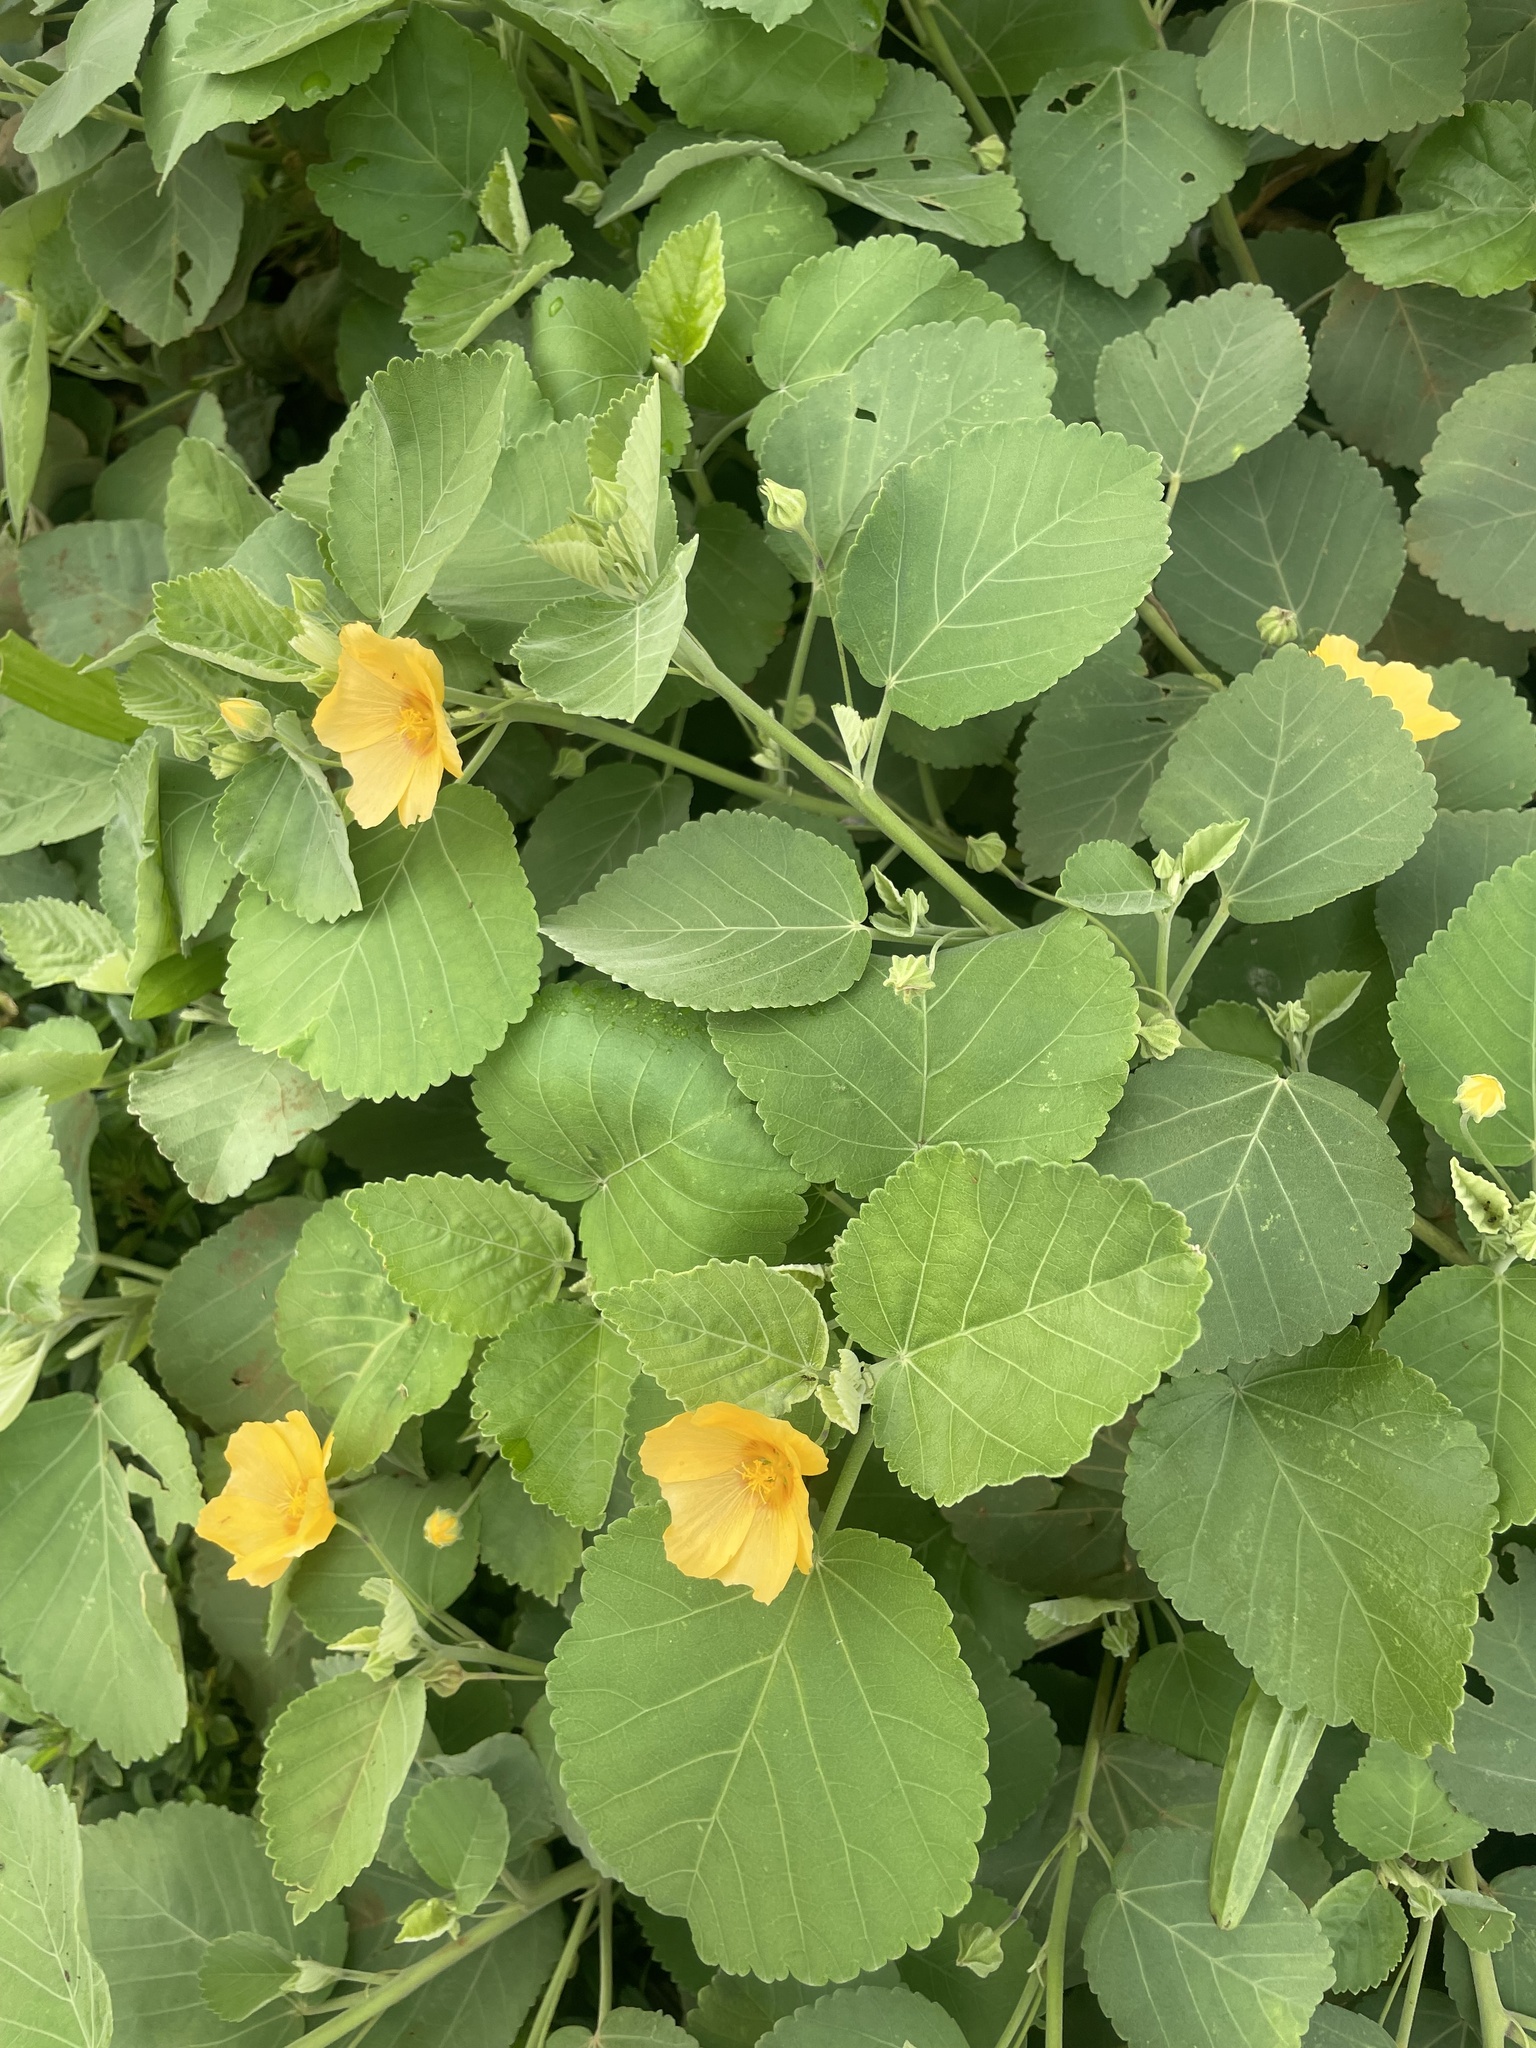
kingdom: Plantae
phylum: Tracheophyta
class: Magnoliopsida
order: Malvales
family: Malvaceae
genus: Sida
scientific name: Sida fallax
